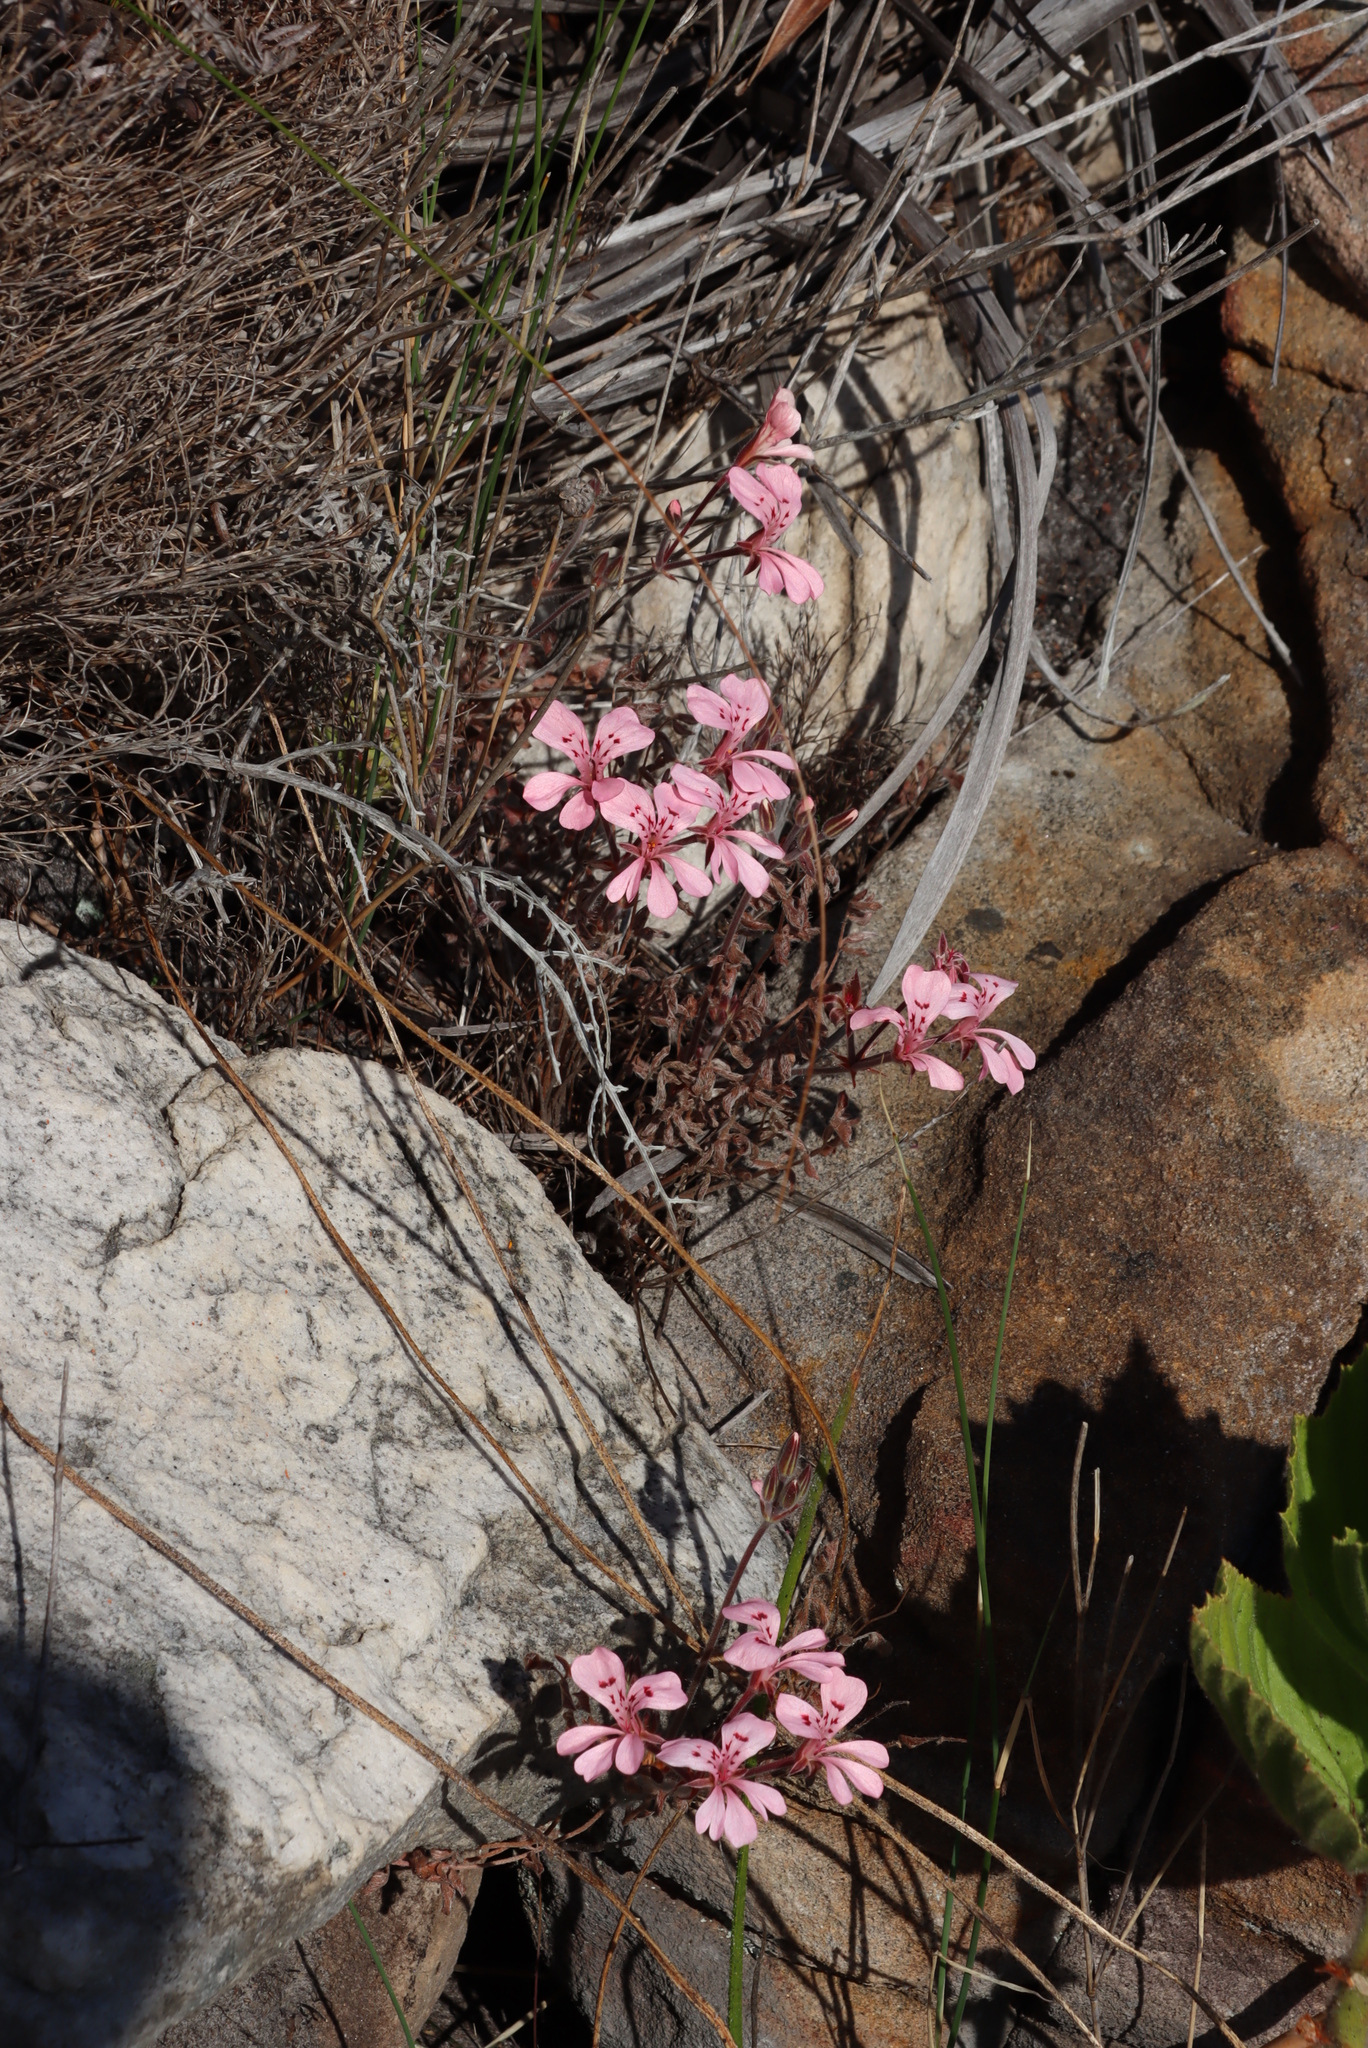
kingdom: Plantae
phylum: Tracheophyta
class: Magnoliopsida
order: Geraniales
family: Geraniaceae
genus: Pelargonium
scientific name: Pelargonium pinnatum
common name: Pinnated pelargonium
